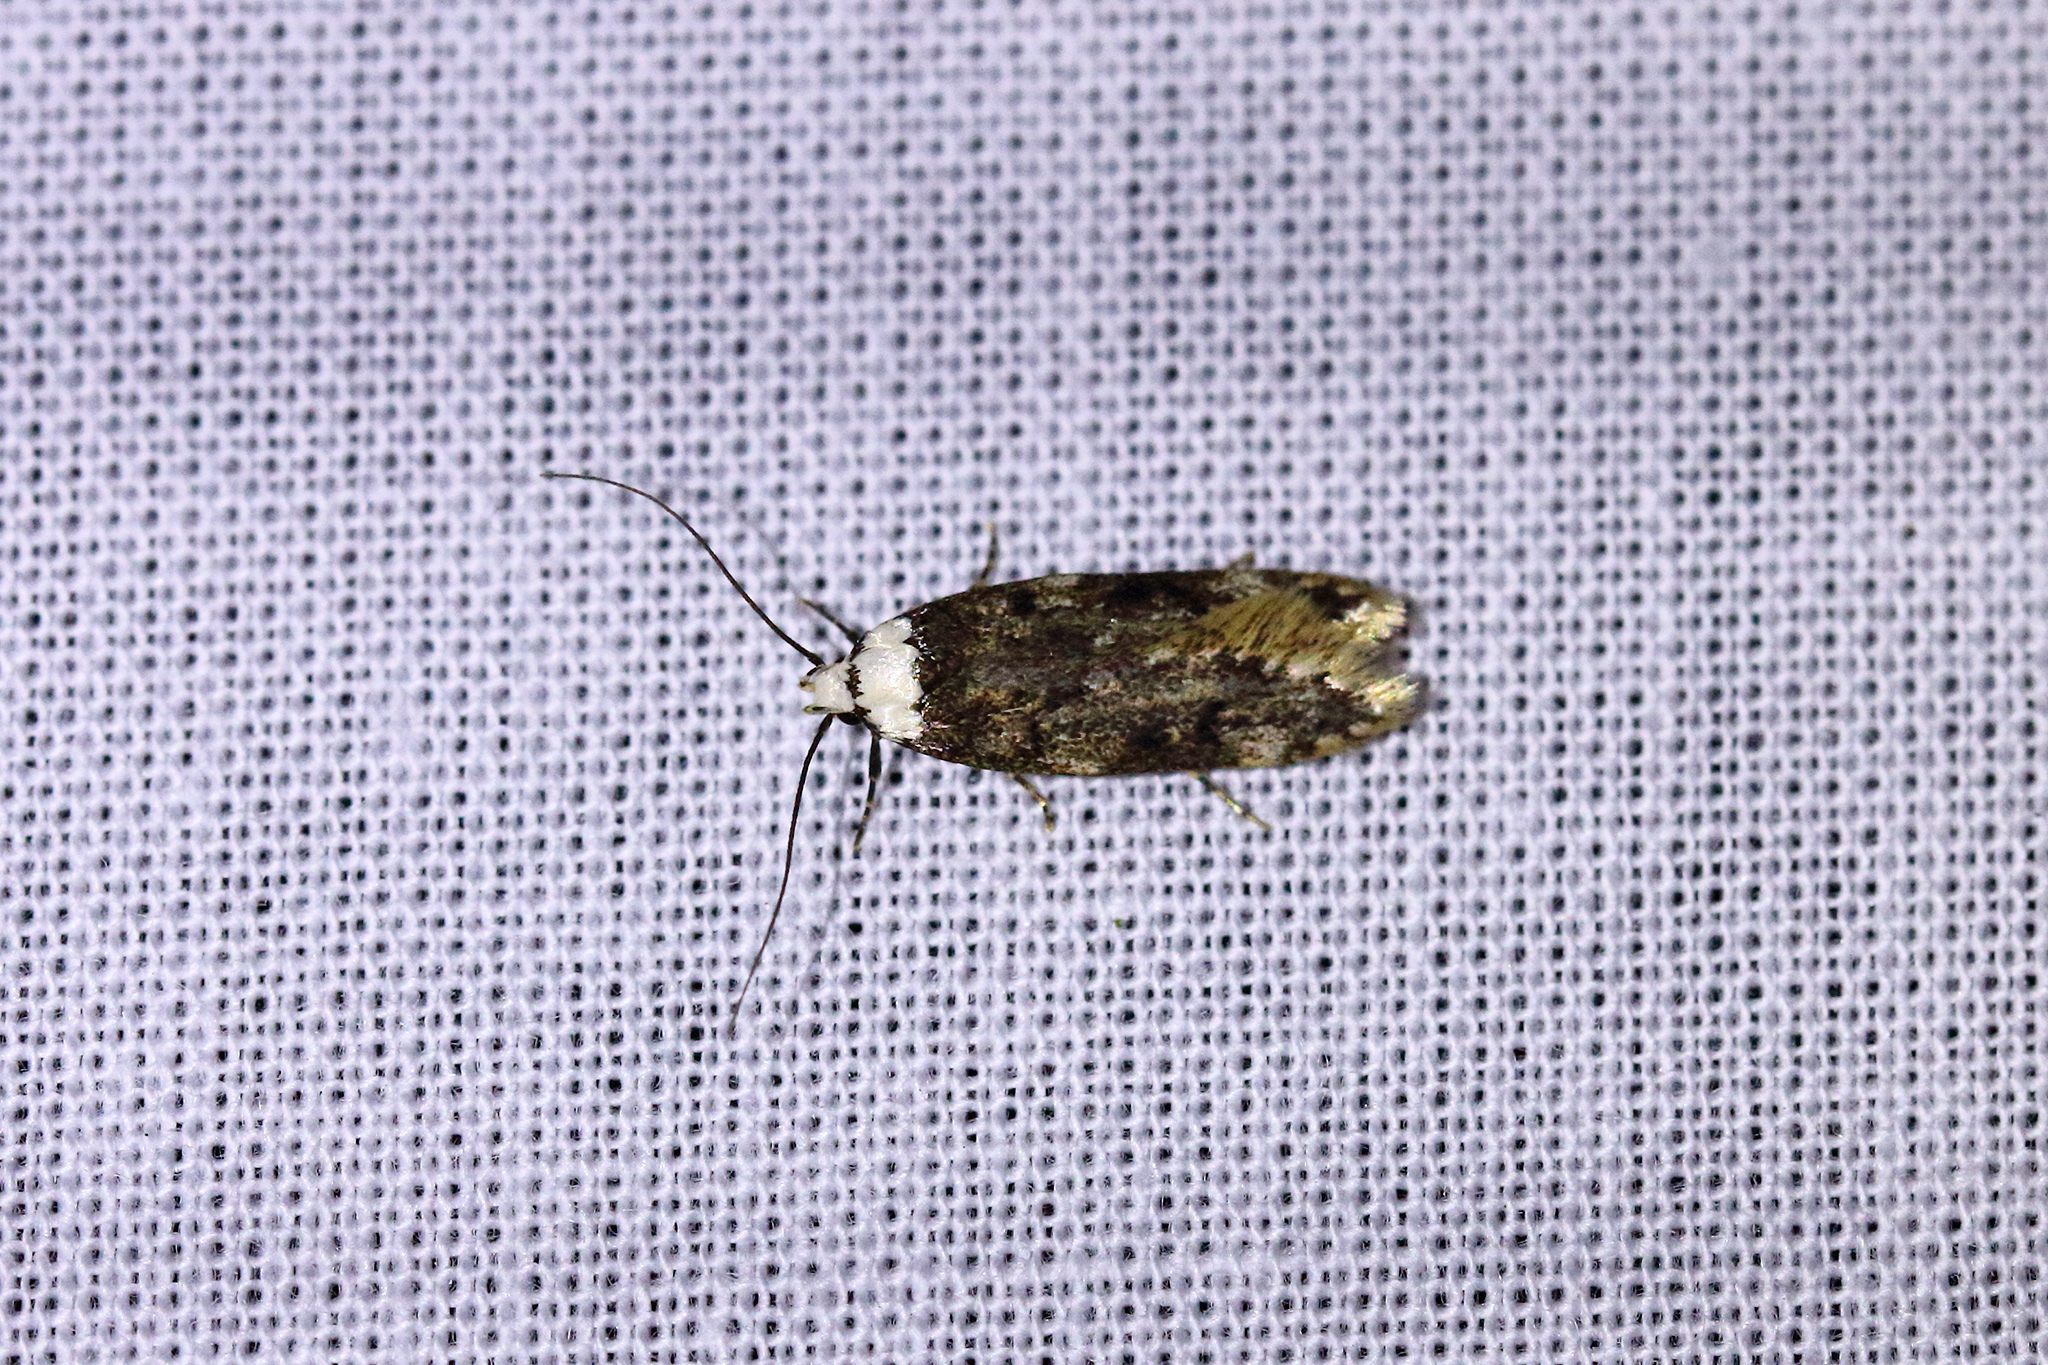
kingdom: Animalia
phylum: Arthropoda
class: Insecta
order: Lepidoptera
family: Oecophoridae
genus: Endrosis
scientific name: Endrosis sarcitrella
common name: White-shouldered house moth
